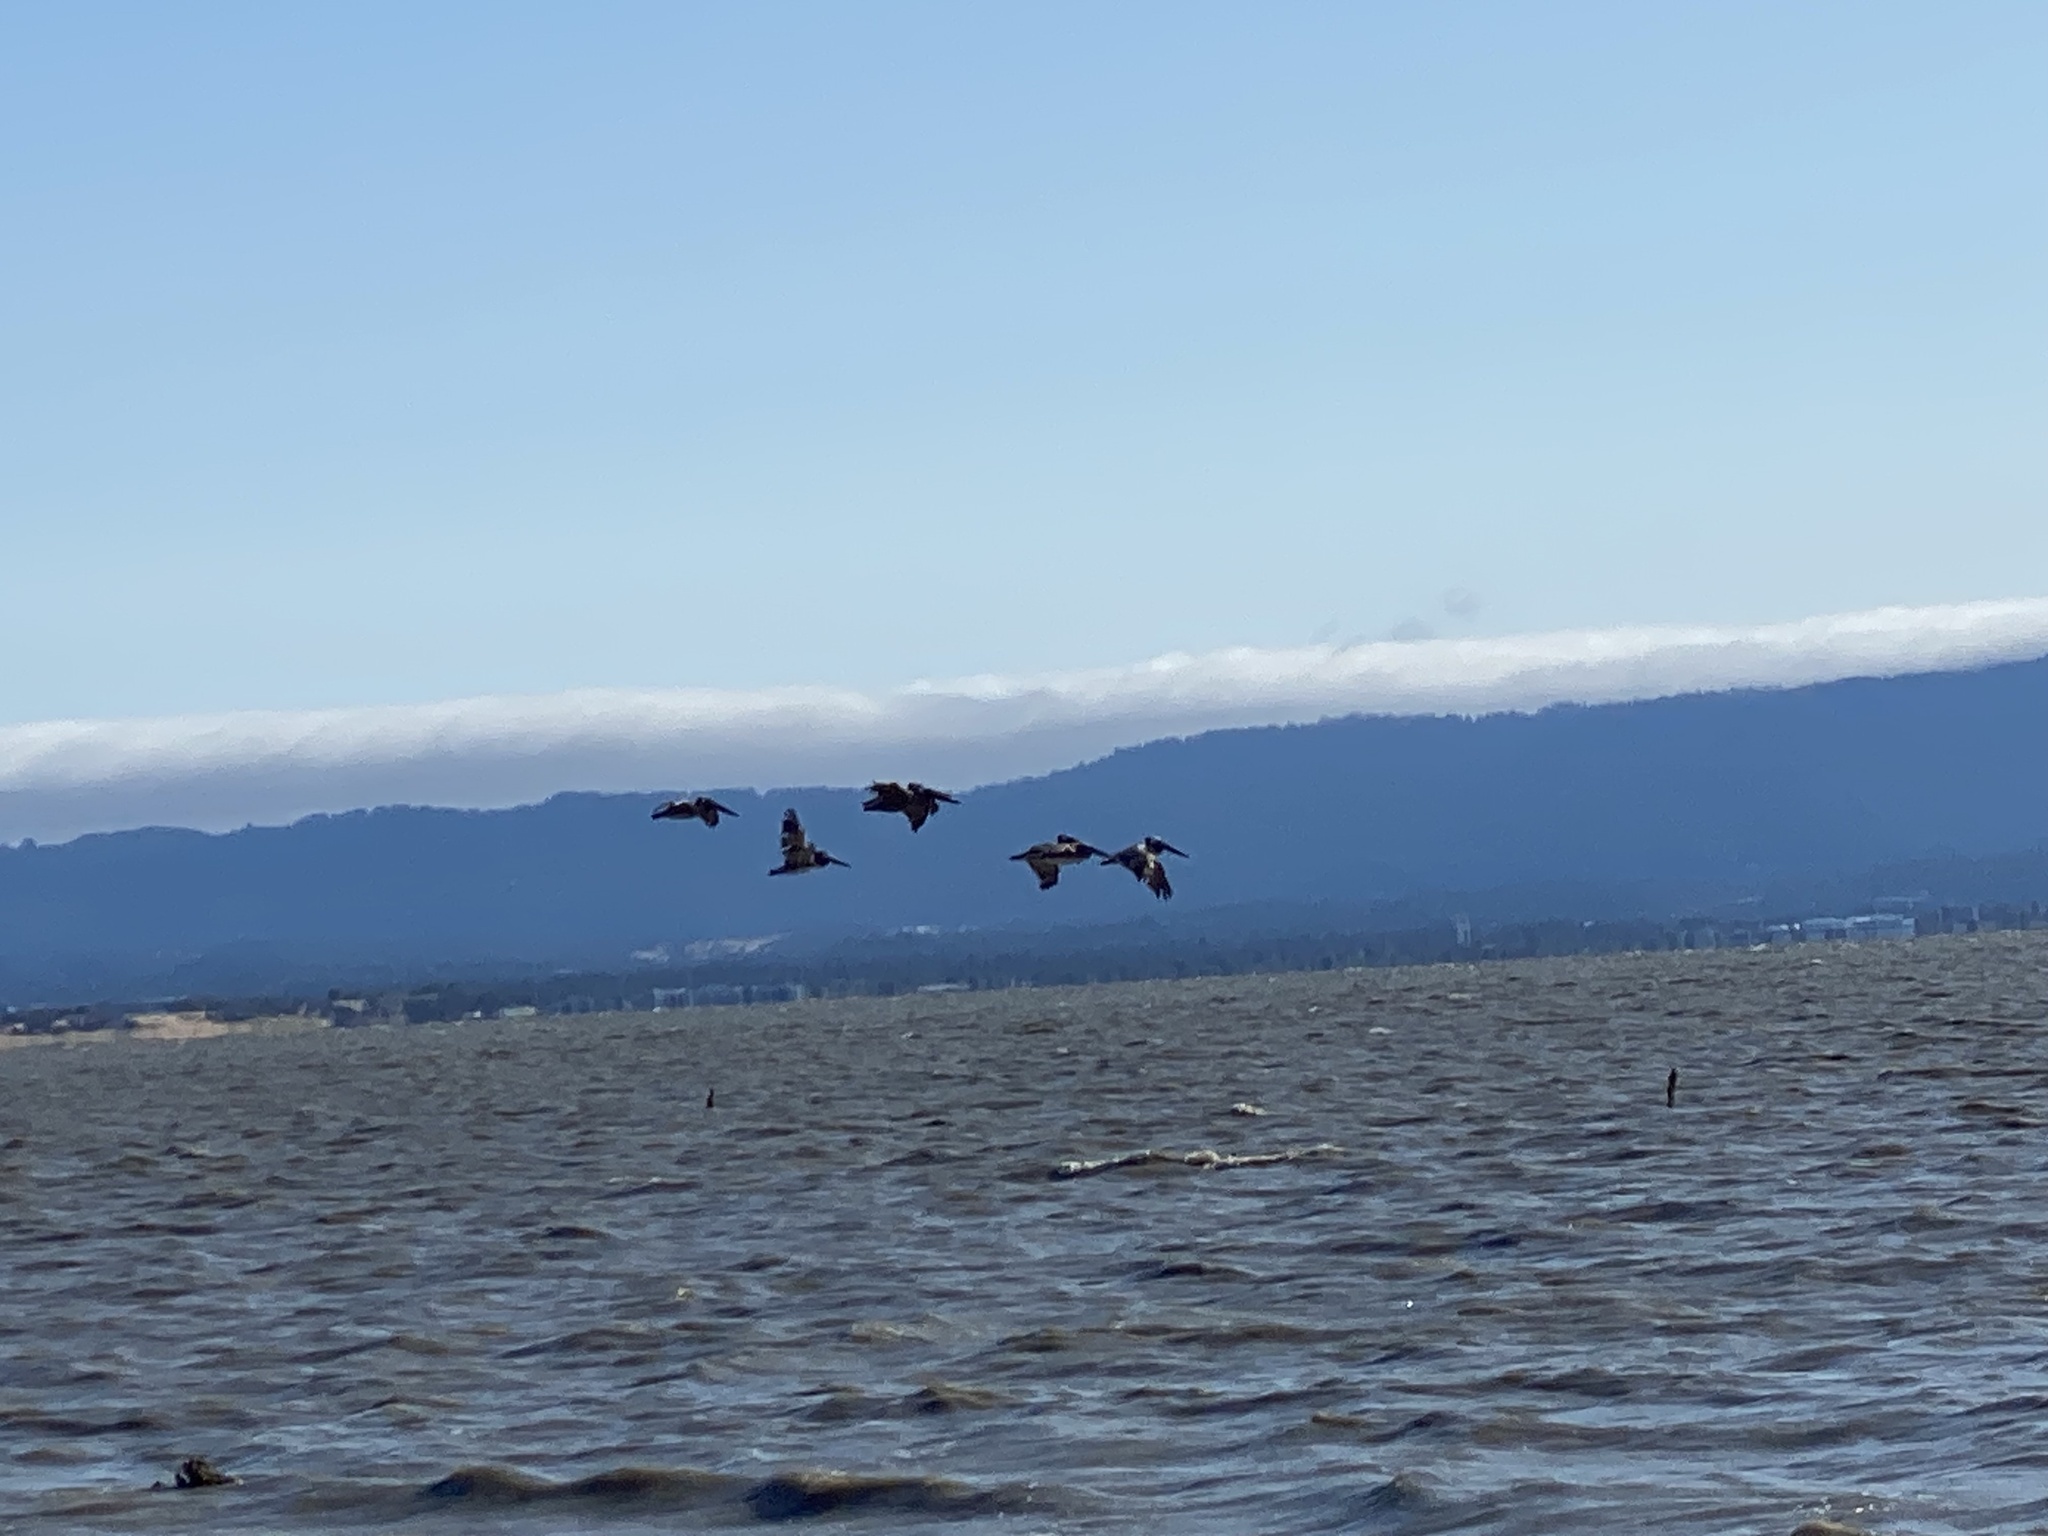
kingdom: Animalia
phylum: Chordata
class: Aves
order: Pelecaniformes
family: Pelecanidae
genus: Pelecanus
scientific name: Pelecanus occidentalis
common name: Brown pelican
